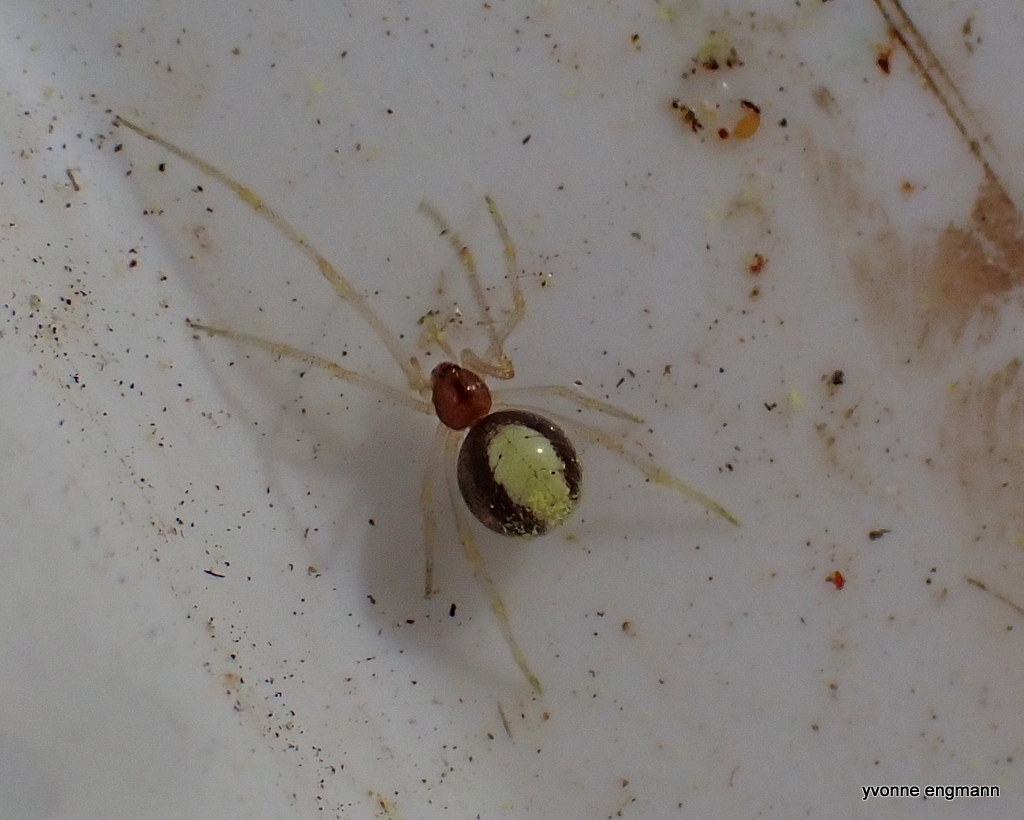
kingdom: Animalia
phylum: Arthropoda
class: Arachnida
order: Araneae
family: Theridiidae
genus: Neottiura
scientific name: Neottiura bimaculata
